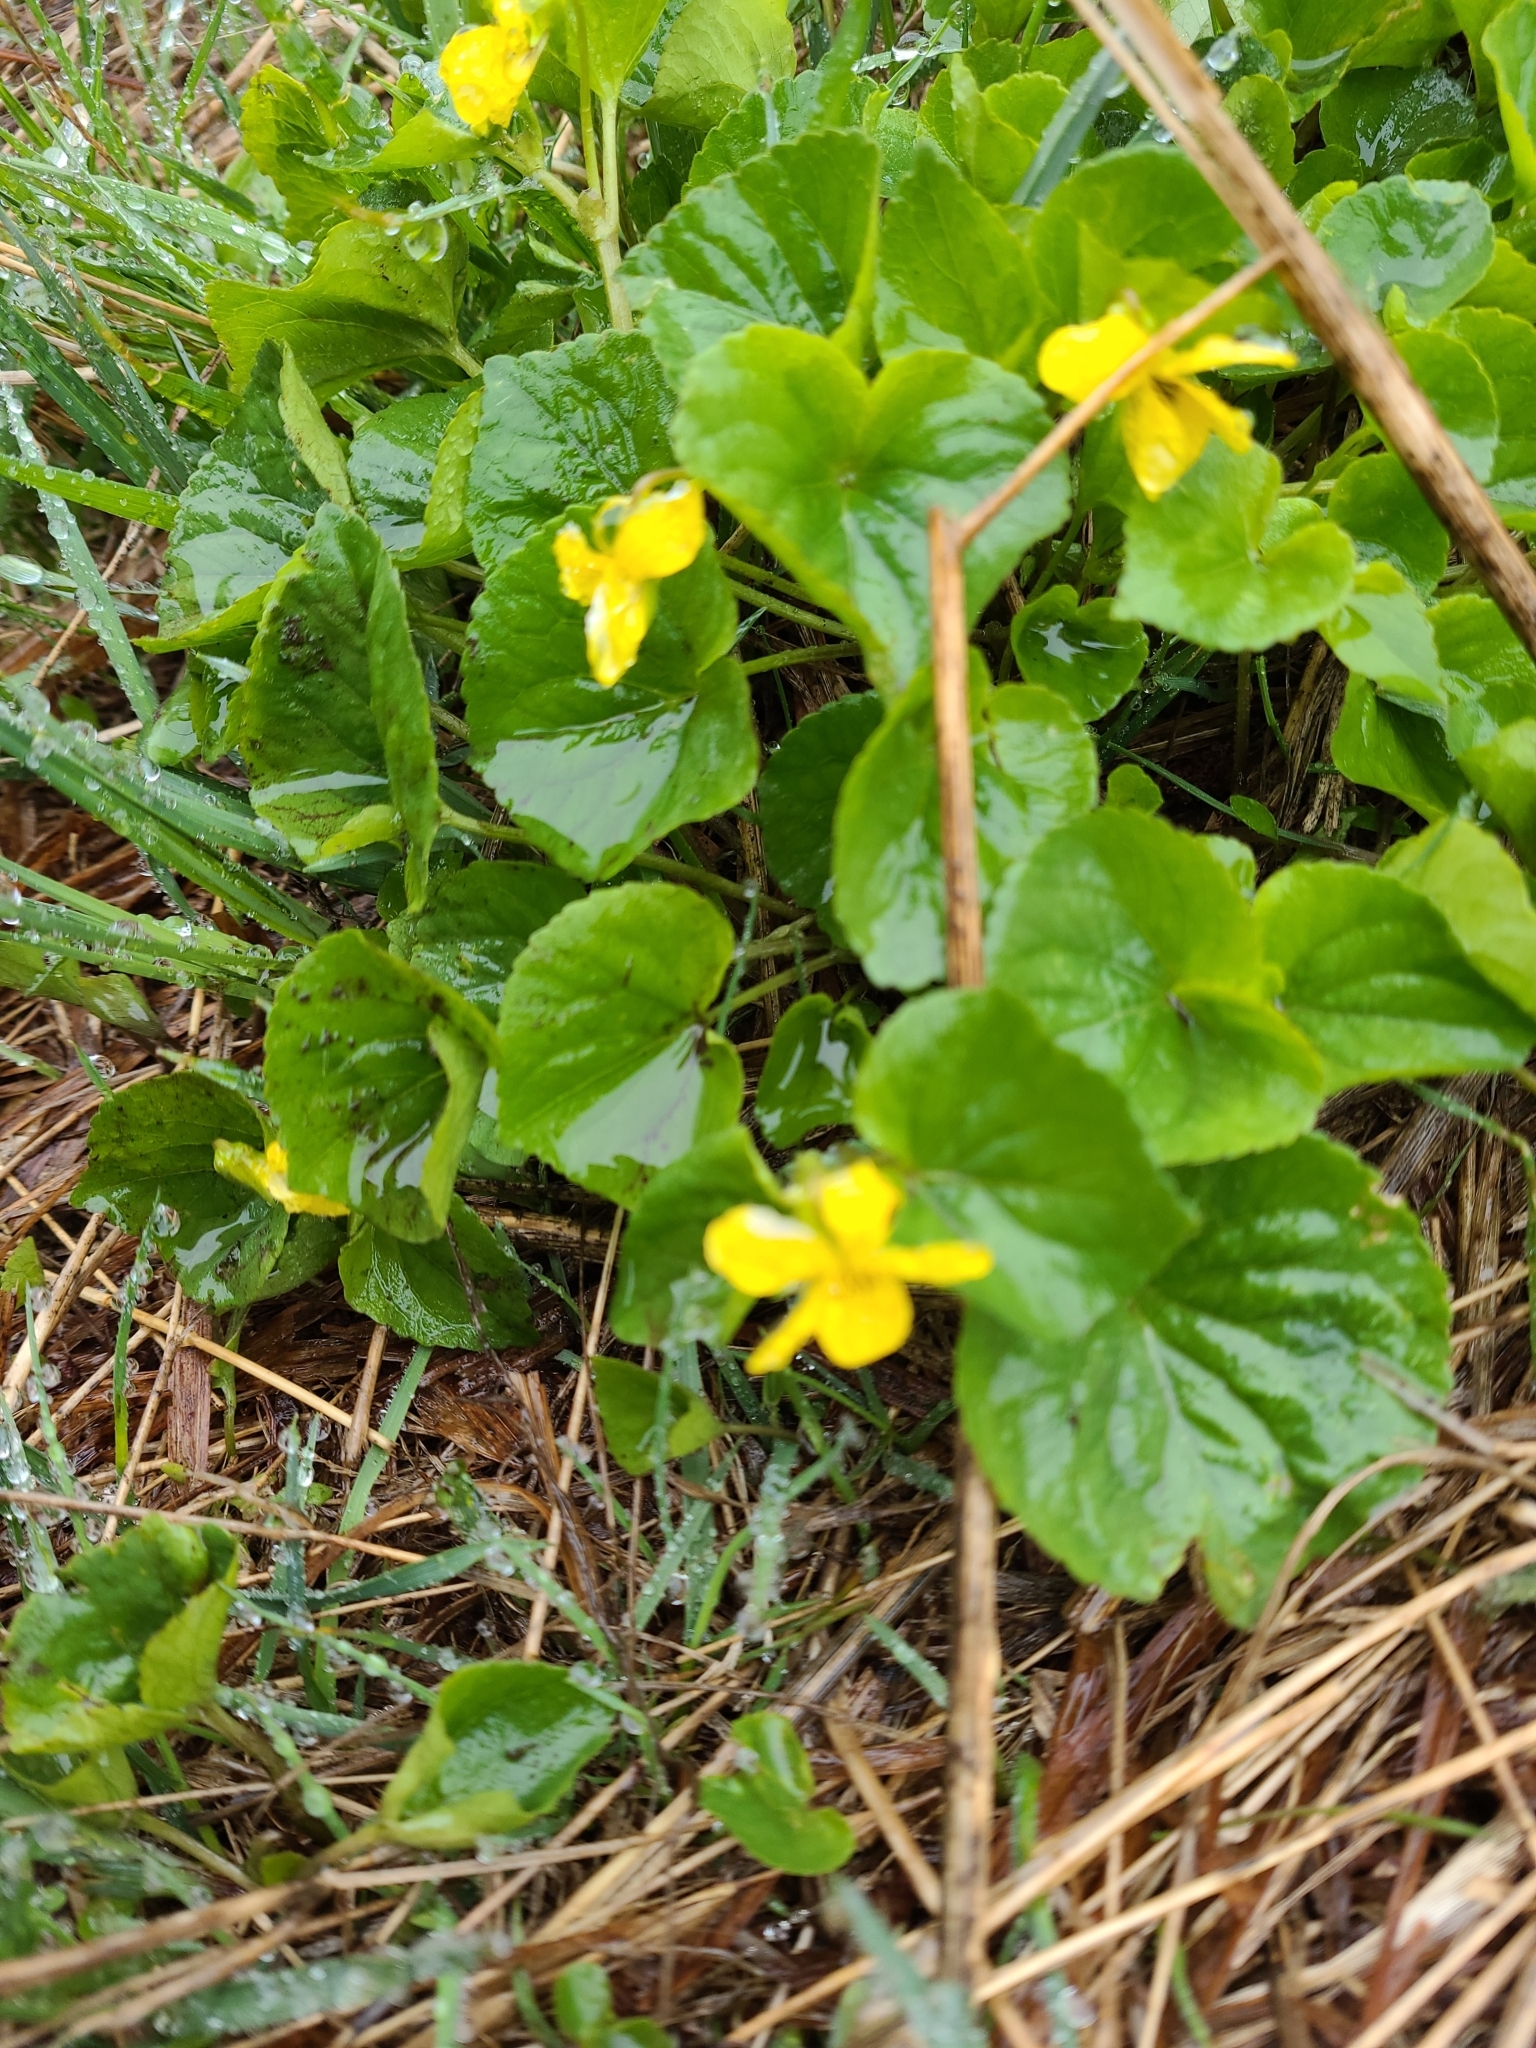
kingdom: Plantae
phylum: Tracheophyta
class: Magnoliopsida
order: Malpighiales
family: Violaceae
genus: Viola
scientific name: Viola glabella
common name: Stream violet
